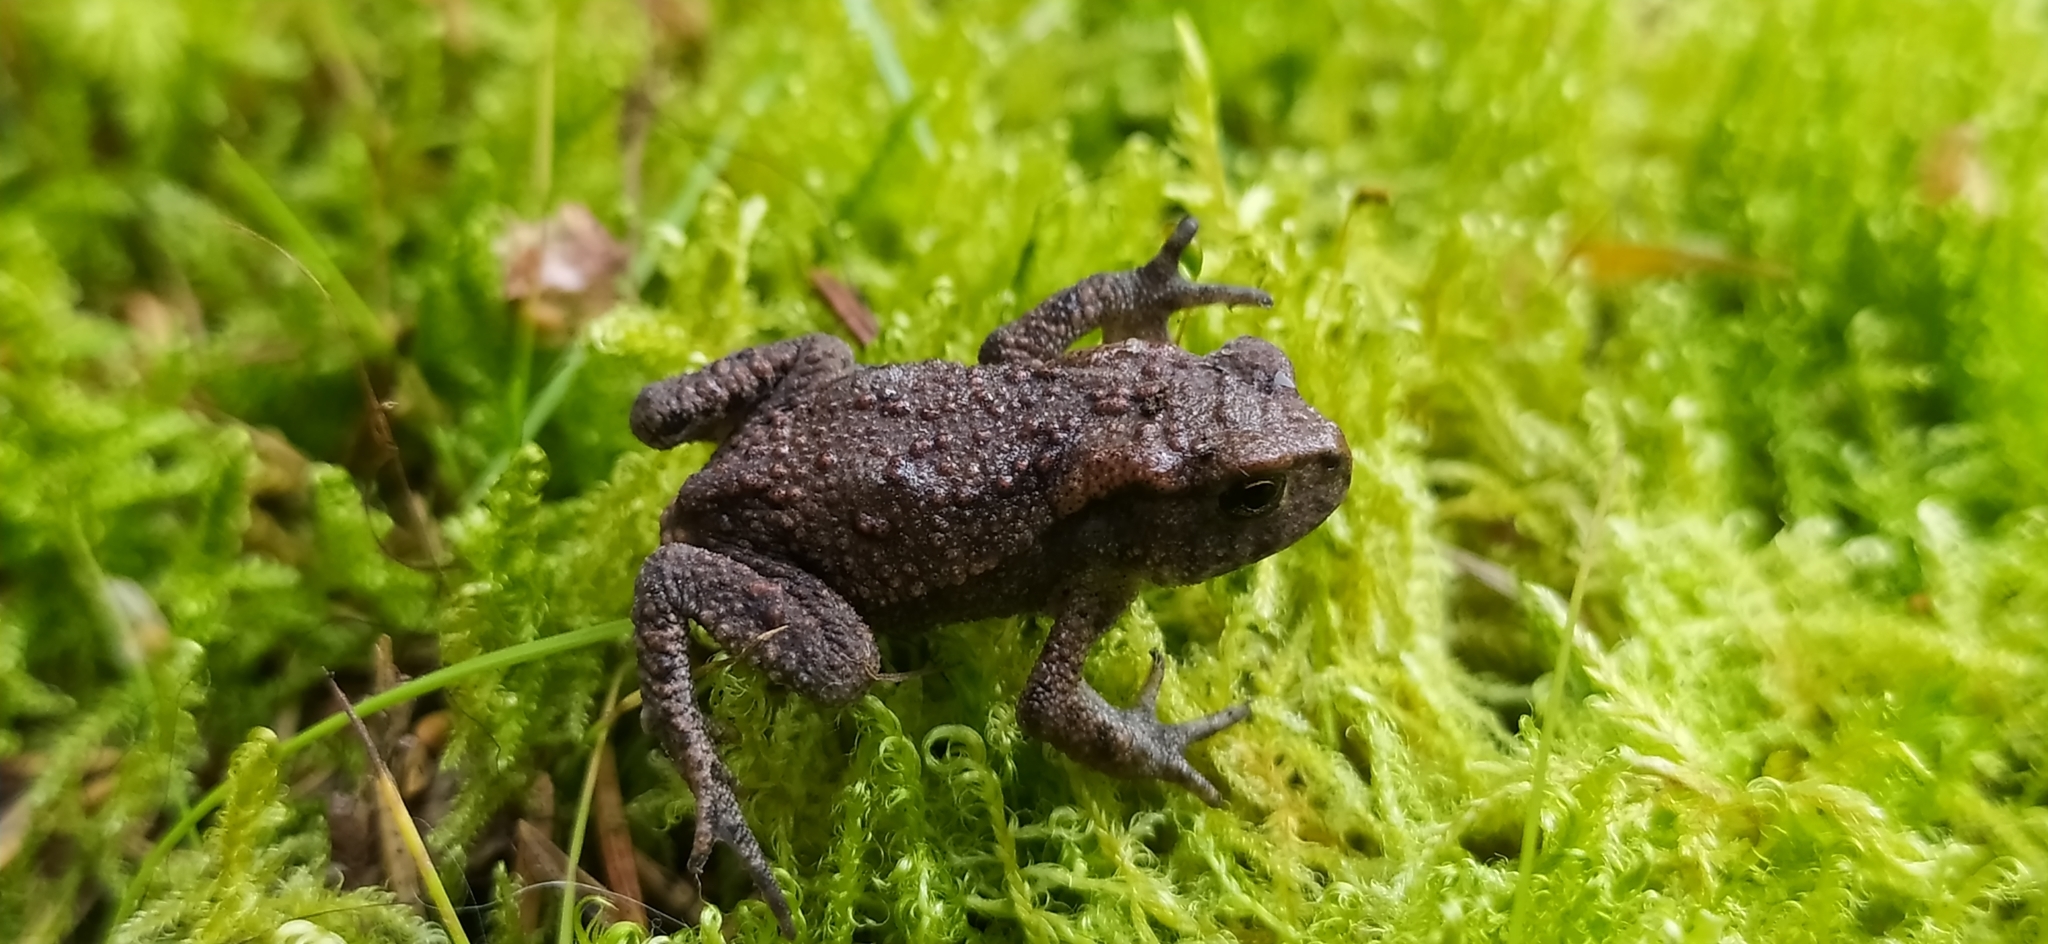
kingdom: Animalia
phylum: Chordata
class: Amphibia
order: Anura
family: Bufonidae
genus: Bufo
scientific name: Bufo bufo
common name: Common toad
